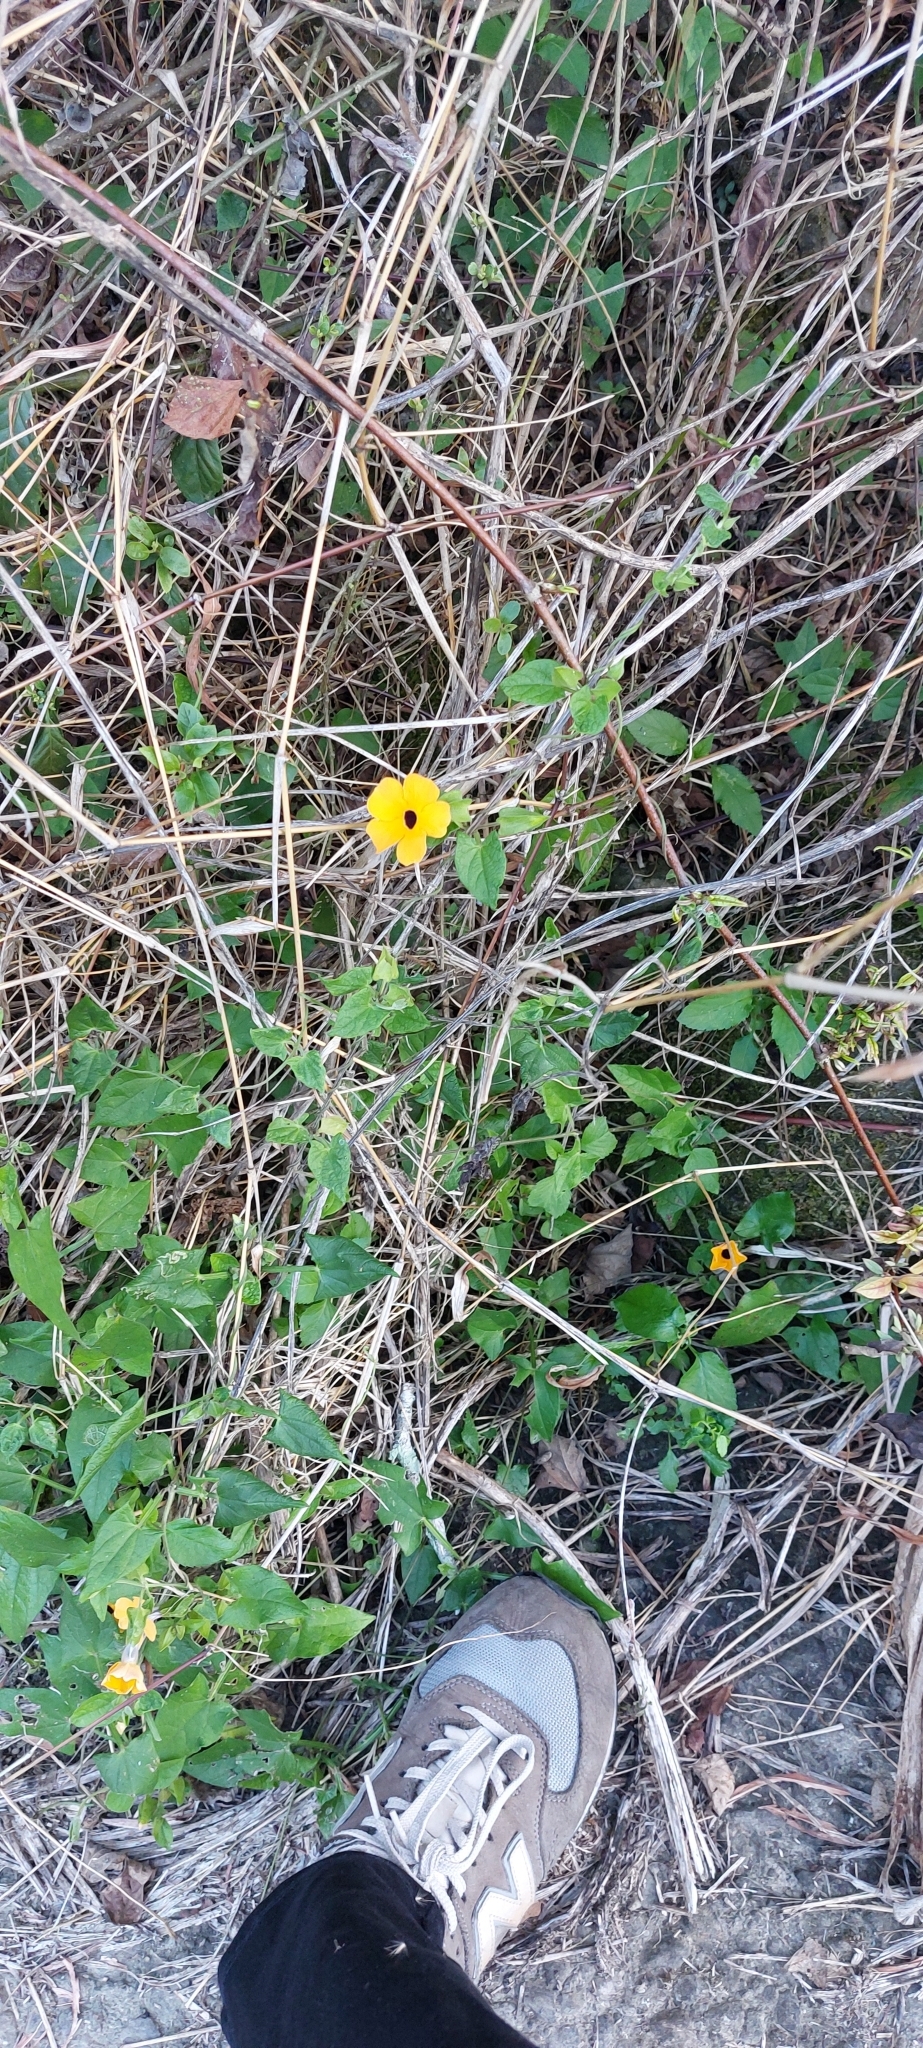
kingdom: Plantae
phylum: Tracheophyta
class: Magnoliopsida
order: Lamiales
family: Acanthaceae
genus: Thunbergia
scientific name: Thunbergia alata
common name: Blackeyed susan vine
